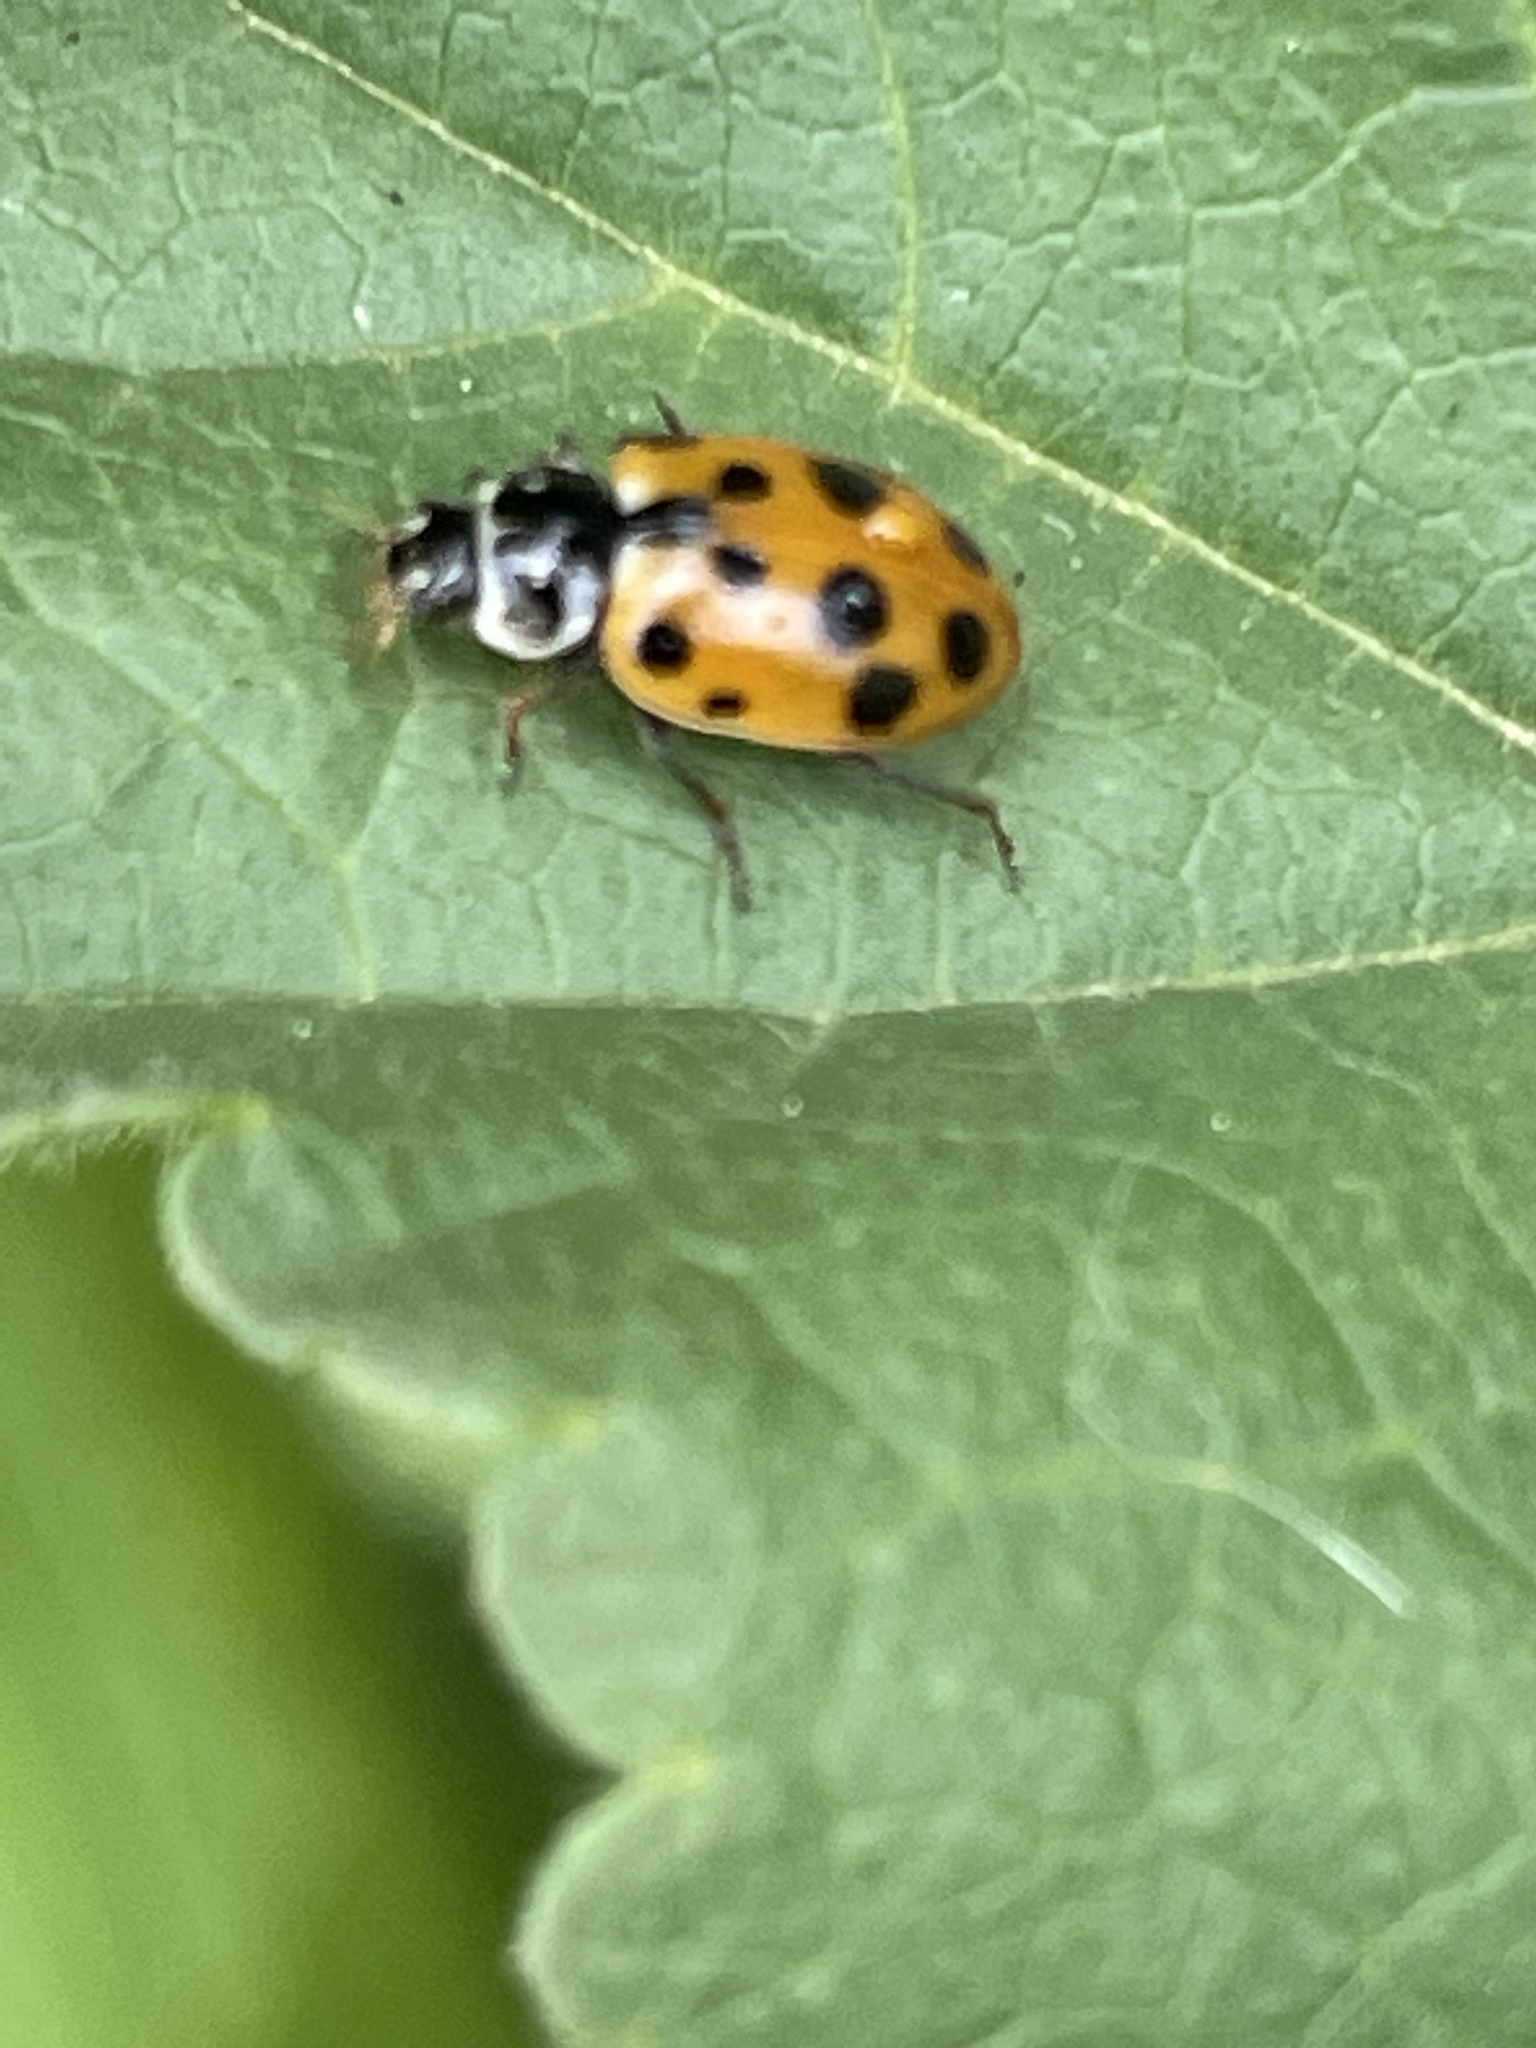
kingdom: Animalia
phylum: Arthropoda
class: Insecta
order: Coleoptera
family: Coccinellidae
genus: Hippodamia
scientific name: Hippodamia variegata
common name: Ladybird beetle
